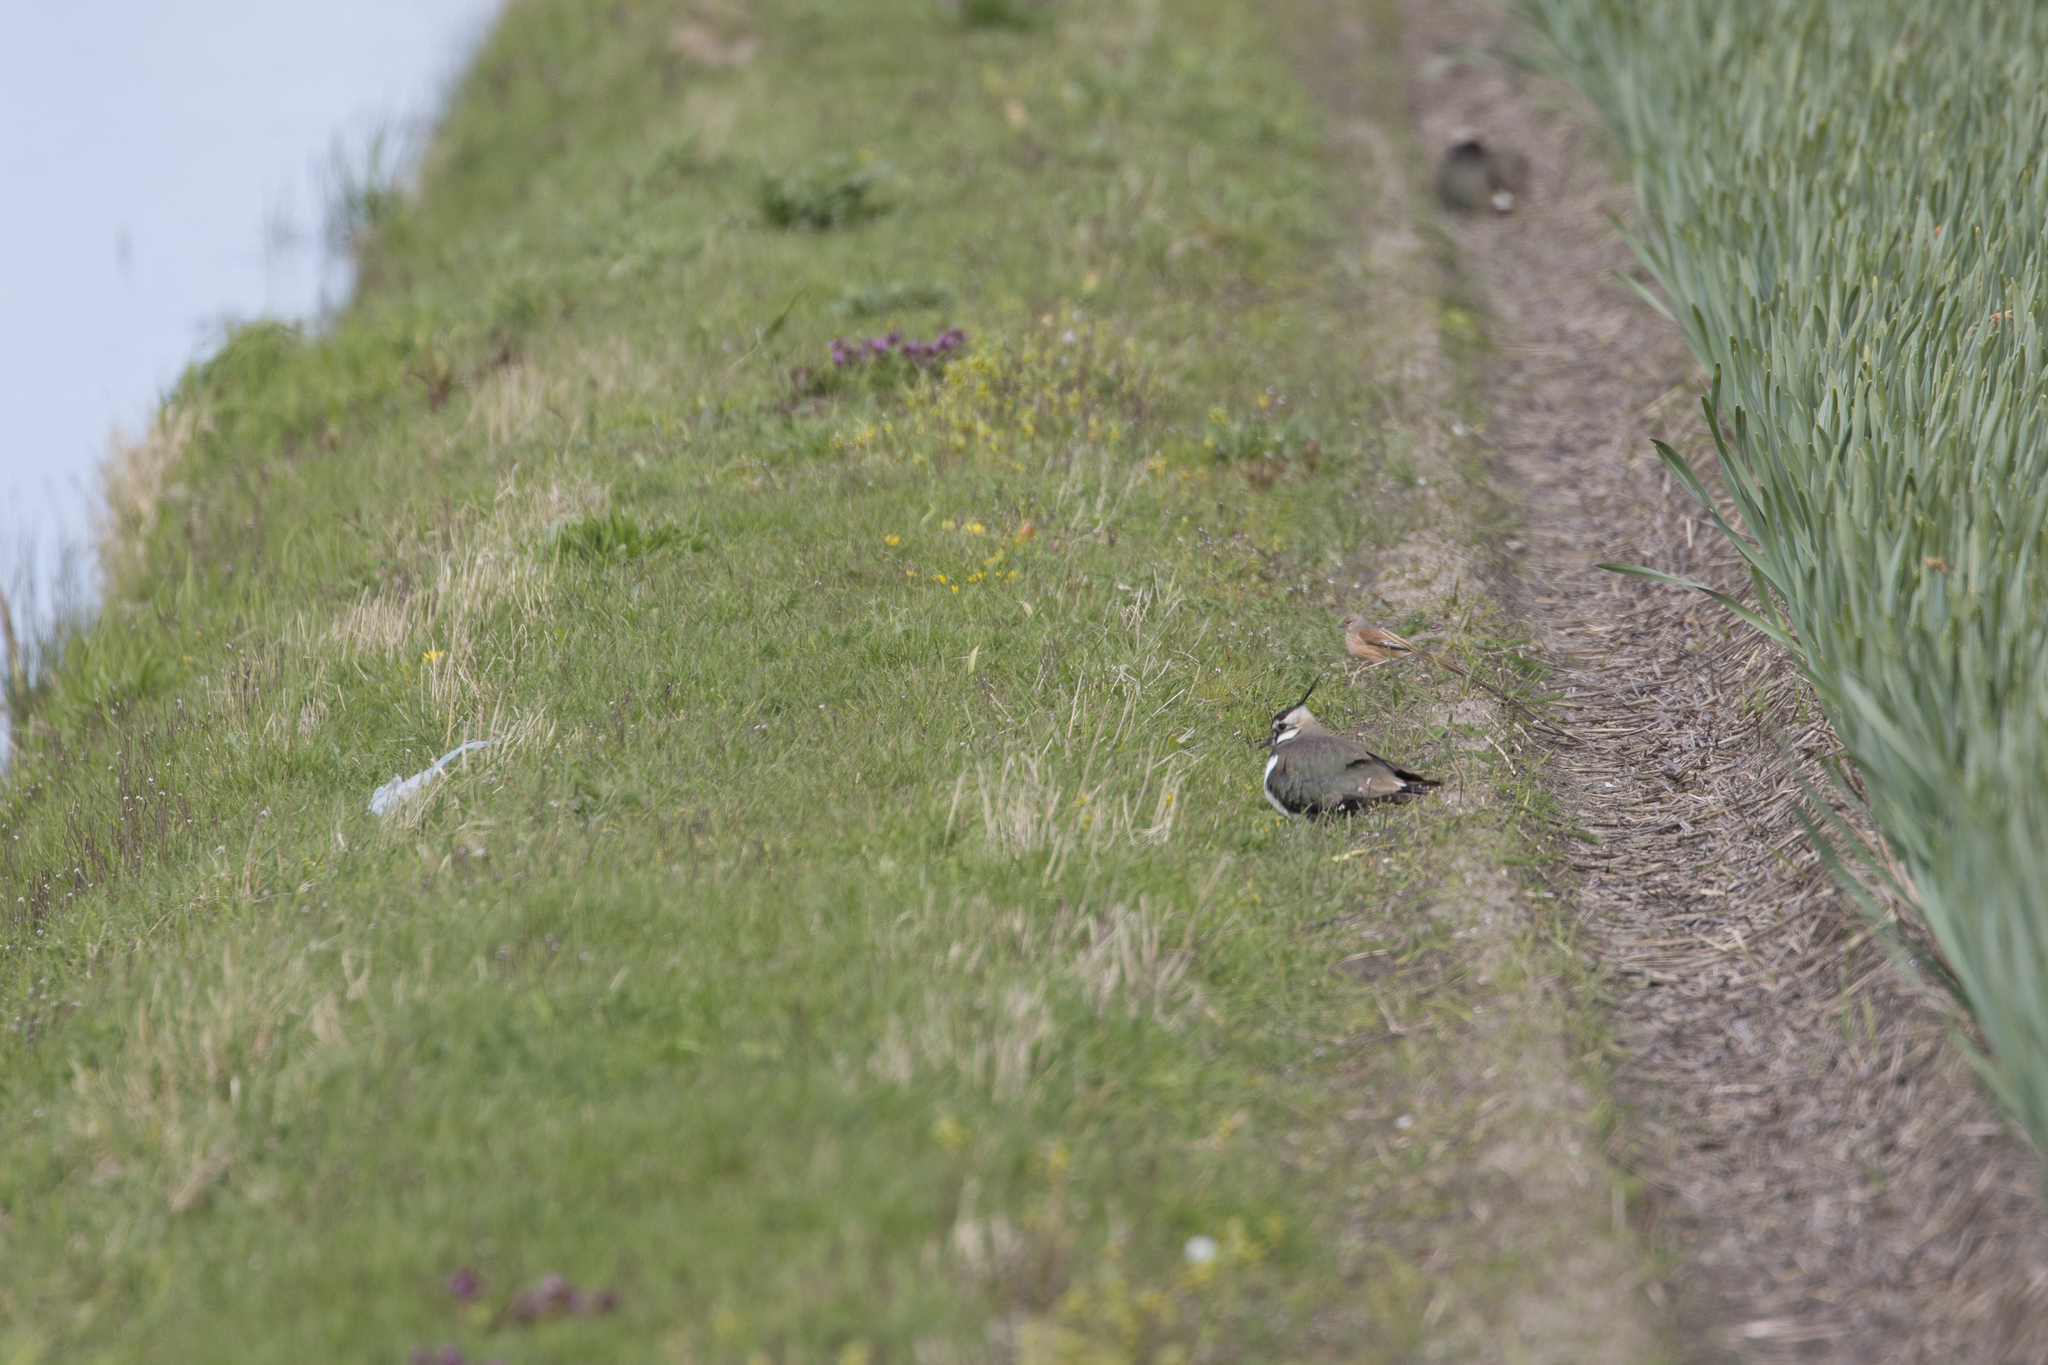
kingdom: Animalia
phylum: Chordata
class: Aves
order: Passeriformes
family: Fringillidae
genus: Linaria
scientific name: Linaria cannabina
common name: Common linnet
